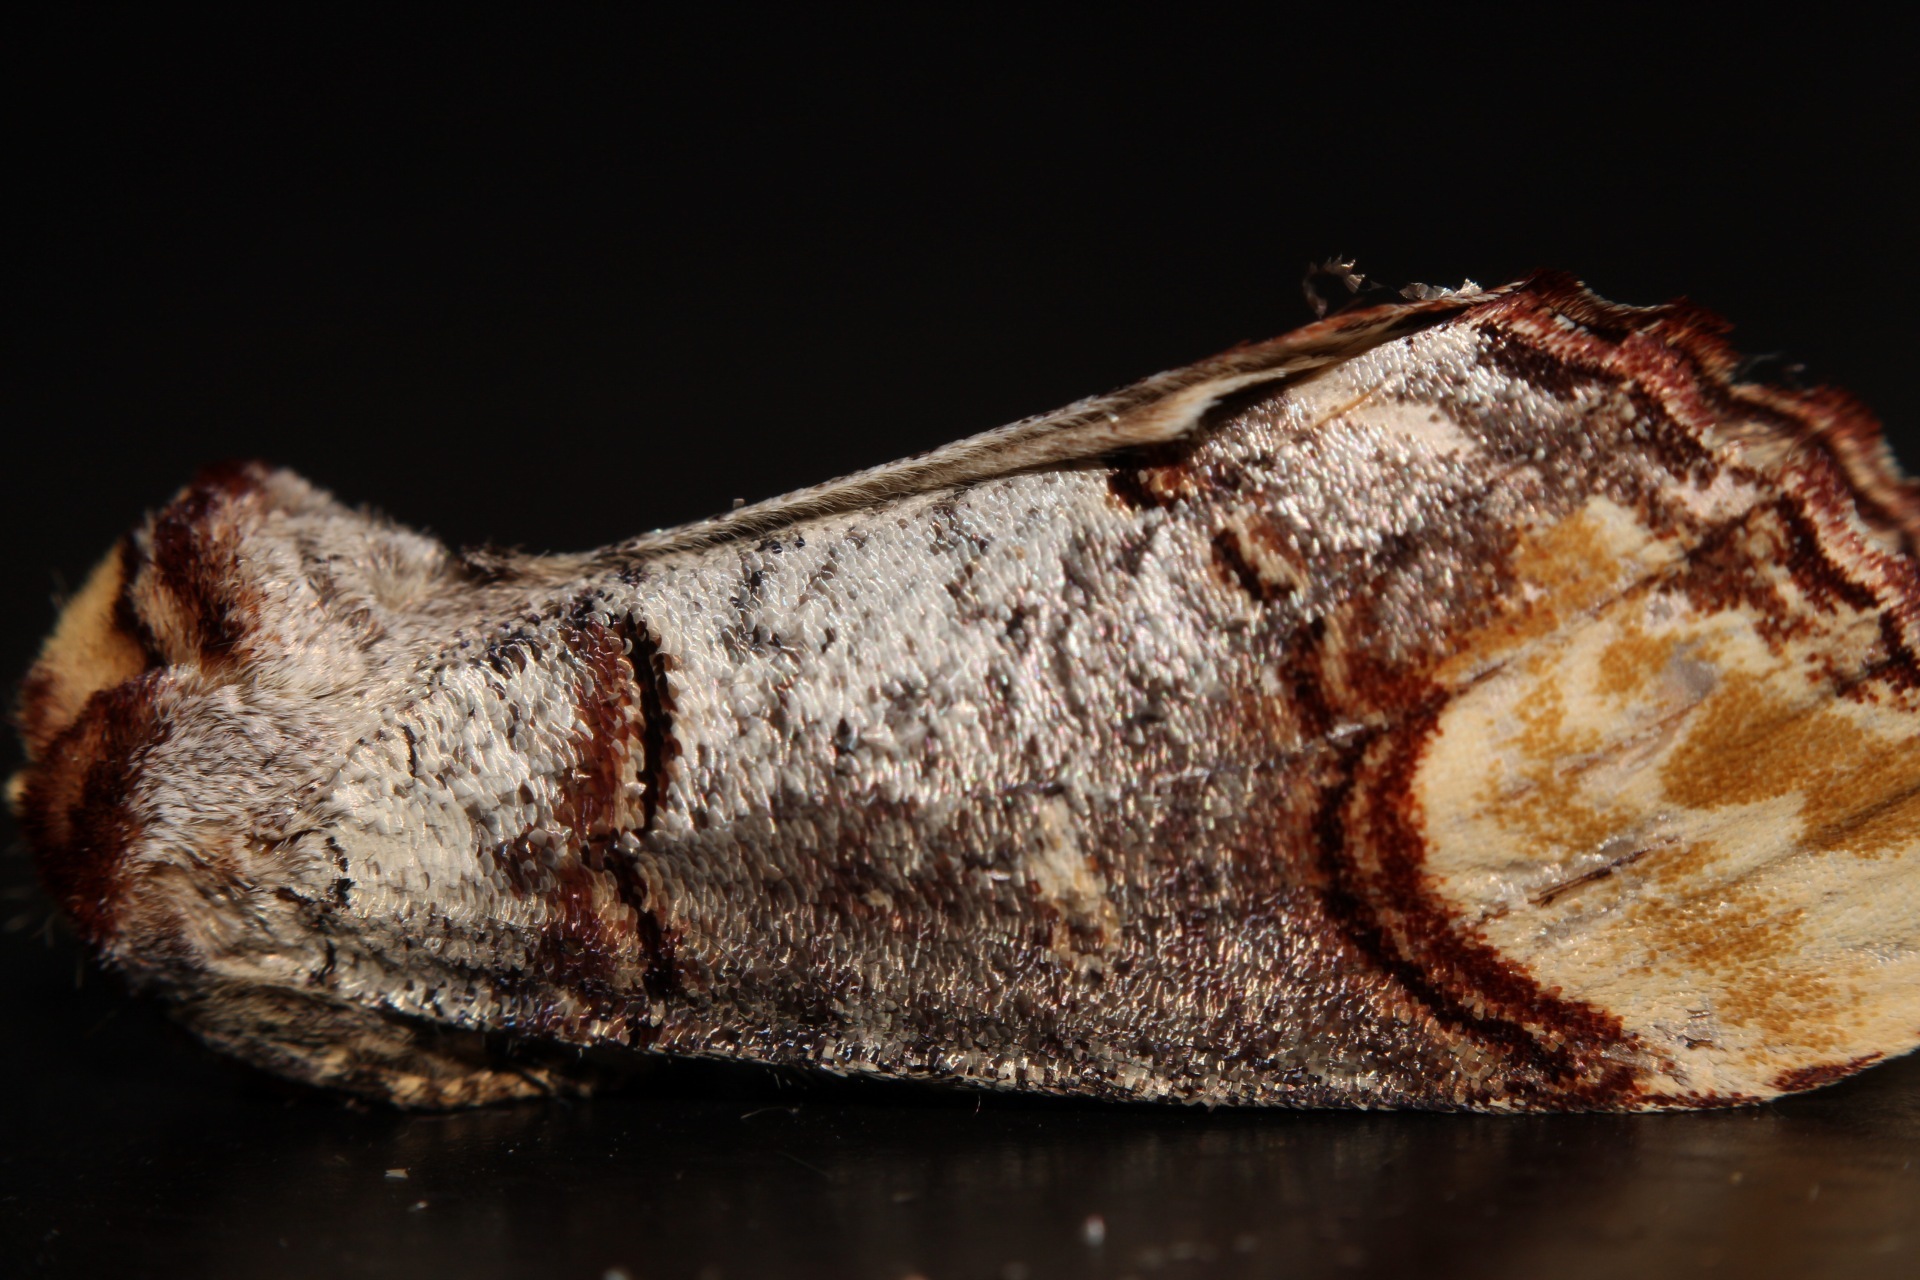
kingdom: Animalia
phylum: Arthropoda
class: Insecta
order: Lepidoptera
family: Notodontidae
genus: Phalera
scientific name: Phalera bucephala
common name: Buff-tip
